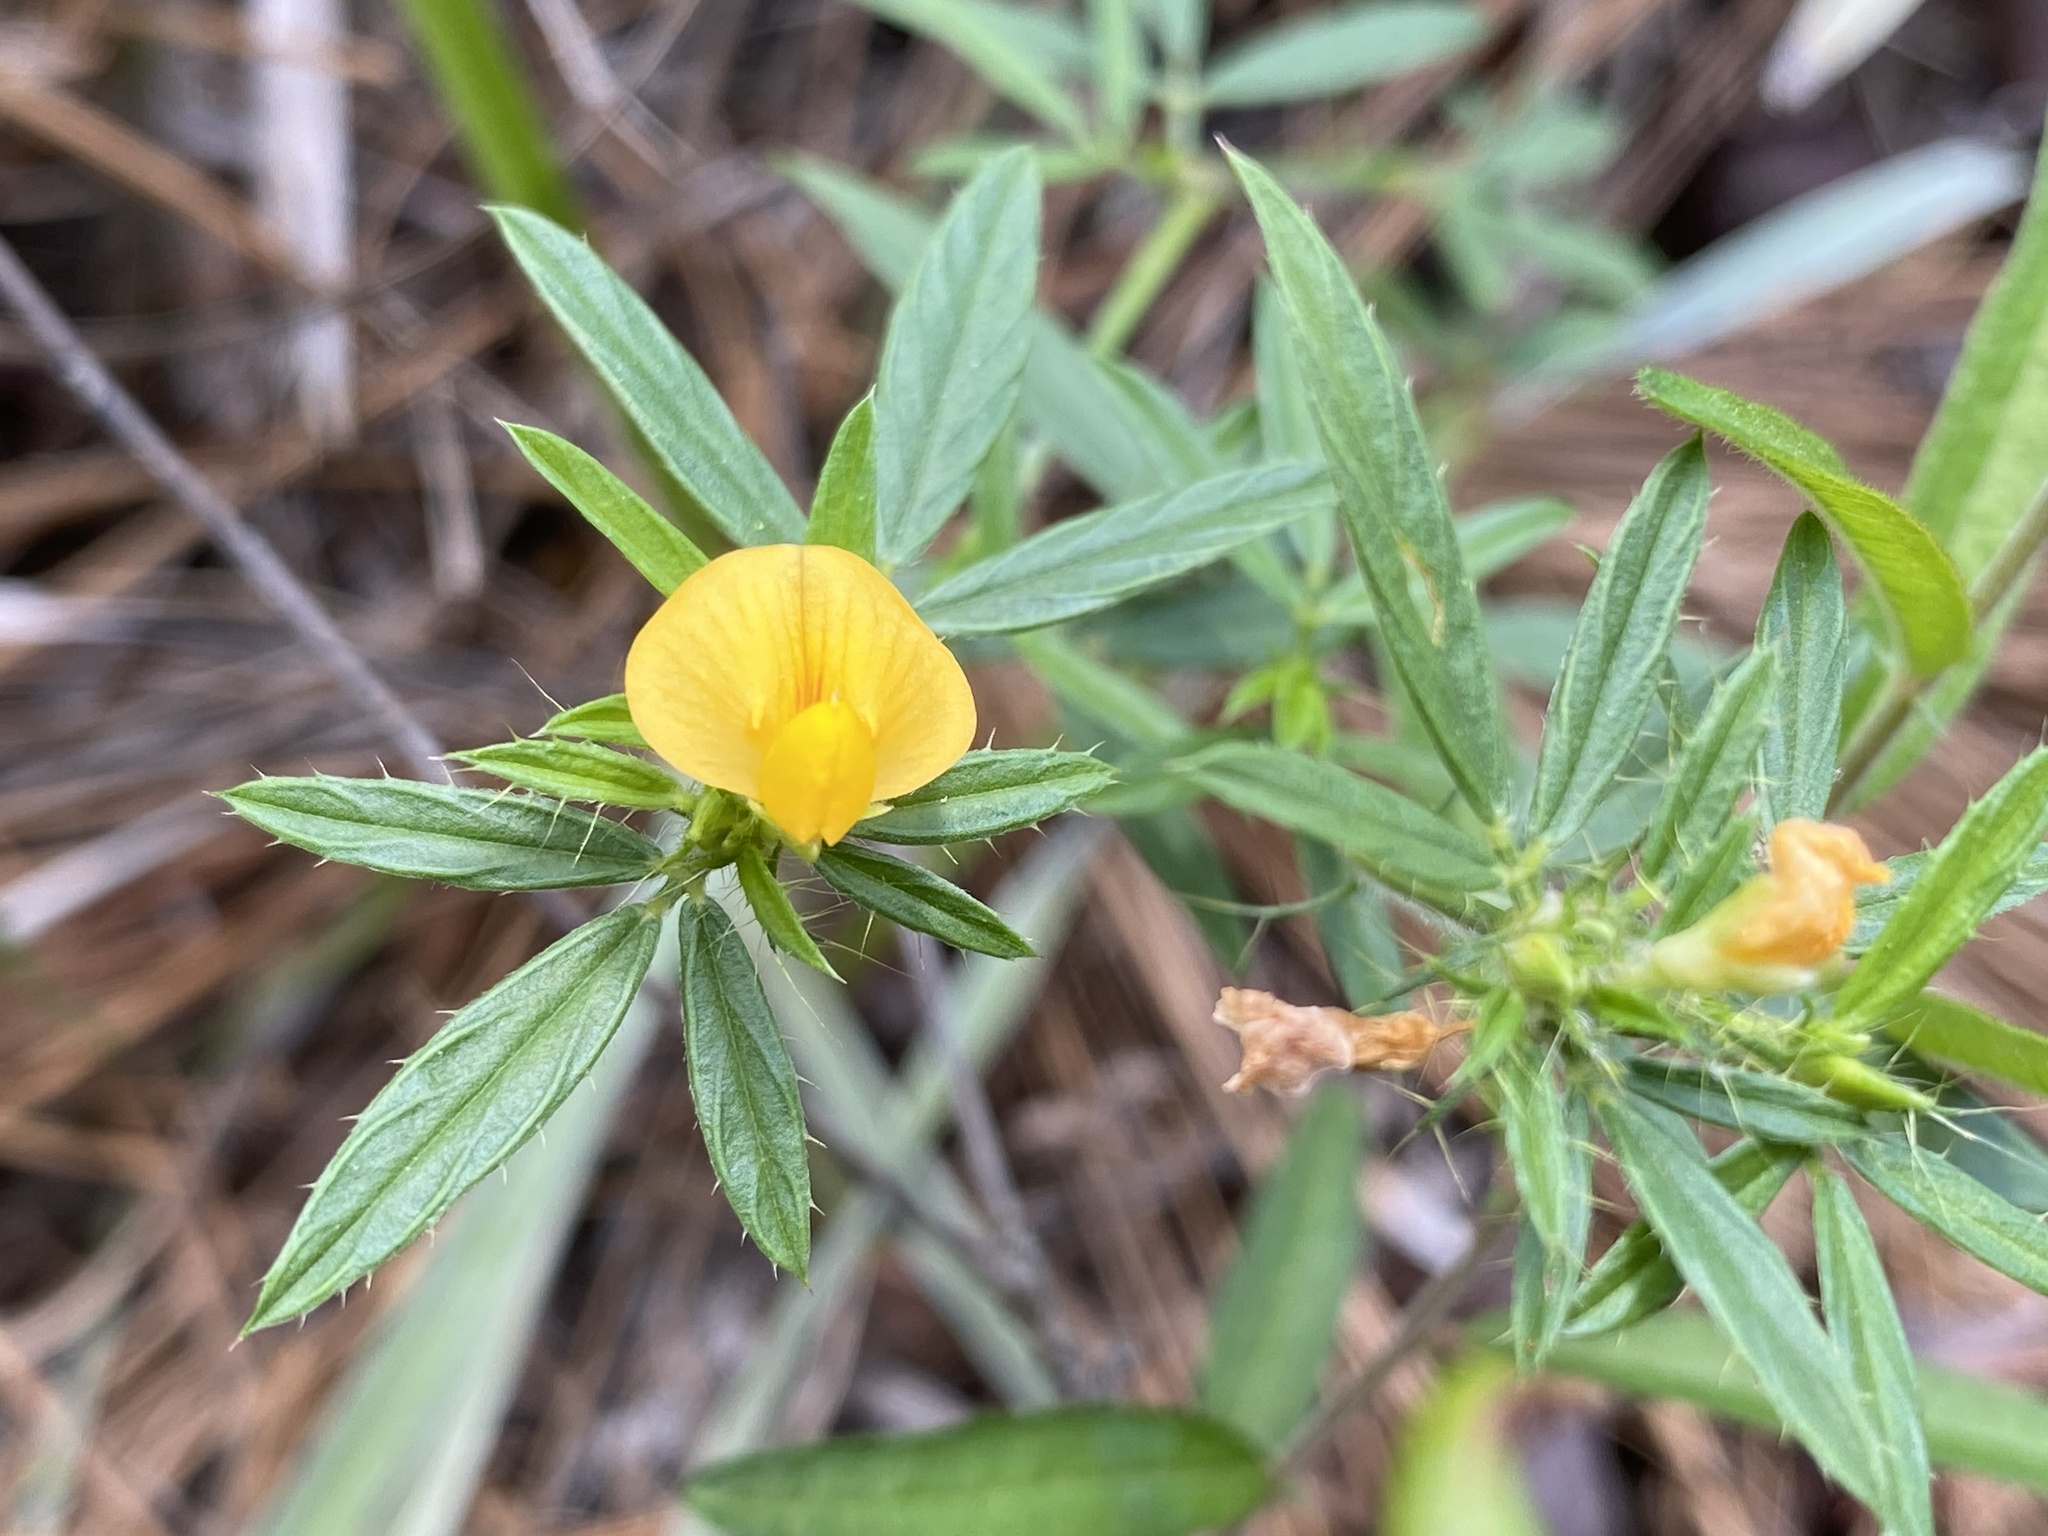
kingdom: Plantae
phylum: Tracheophyta
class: Magnoliopsida
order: Fabales
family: Fabaceae
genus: Stylosanthes
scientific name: Stylosanthes biflora
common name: Two-flower pencil-flower
